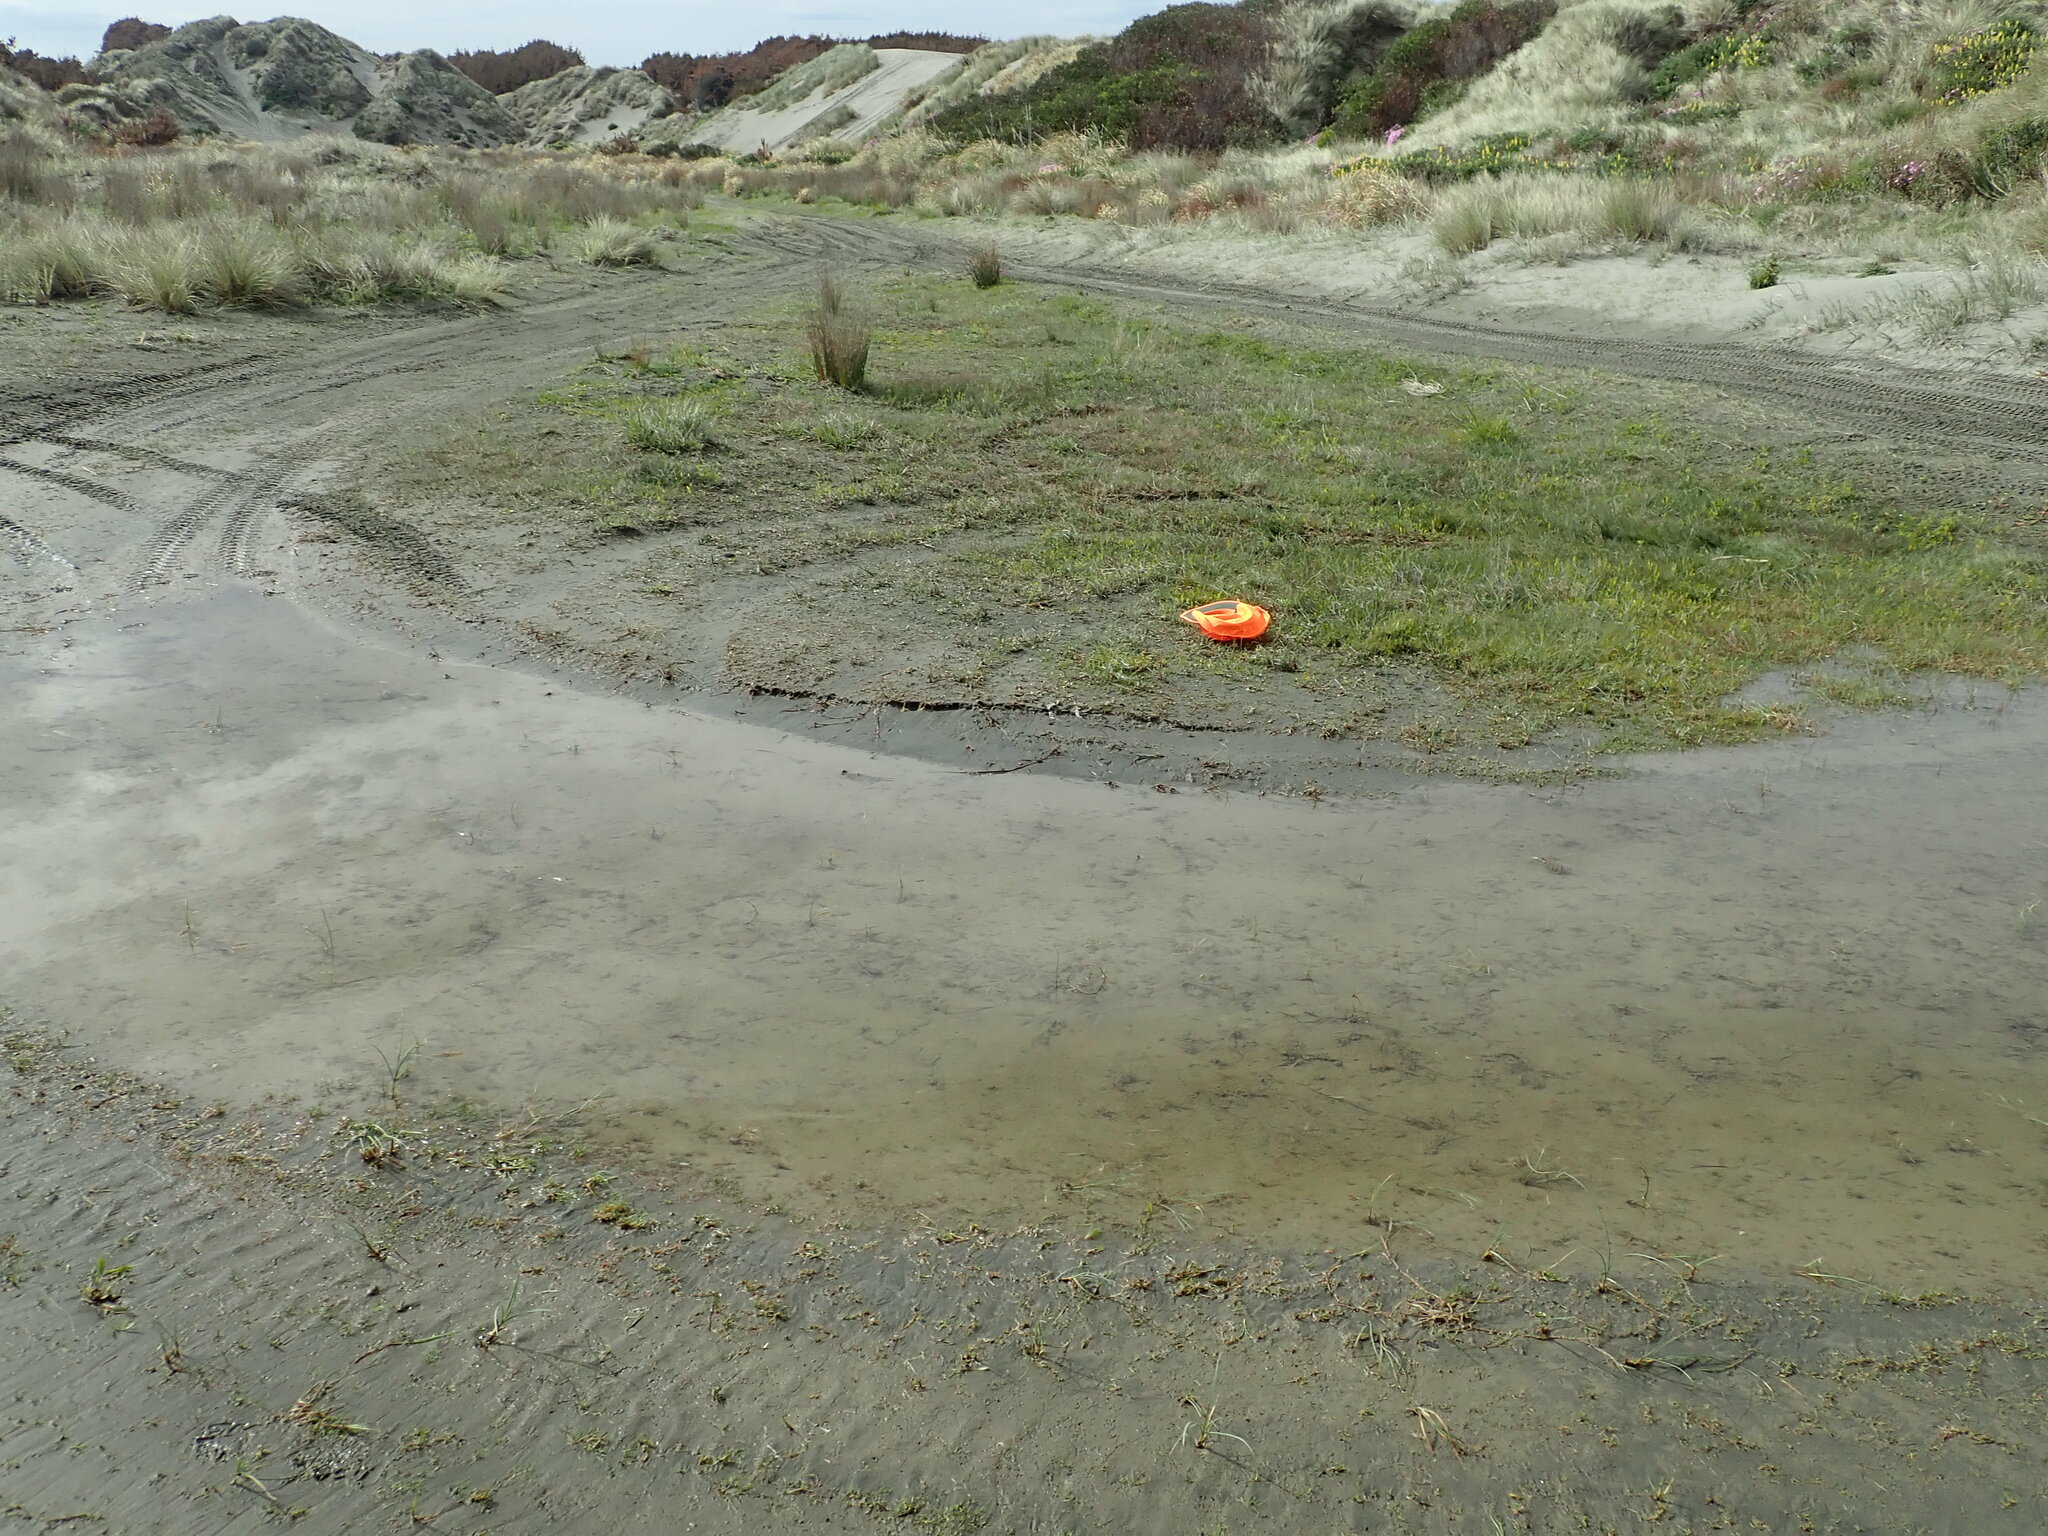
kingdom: Plantae
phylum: Tracheophyta
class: Magnoliopsida
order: Asterales
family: Campanulaceae
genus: Lobelia
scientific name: Lobelia anceps
